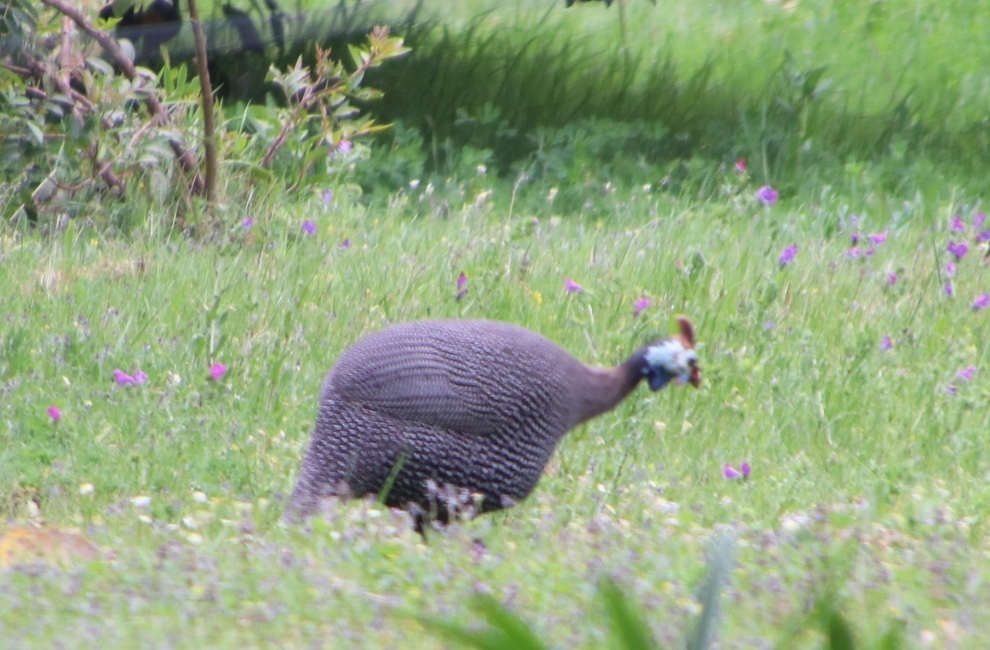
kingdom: Animalia
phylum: Chordata
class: Aves
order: Galliformes
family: Numididae
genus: Numida
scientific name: Numida meleagris
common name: Helmeted guineafowl
